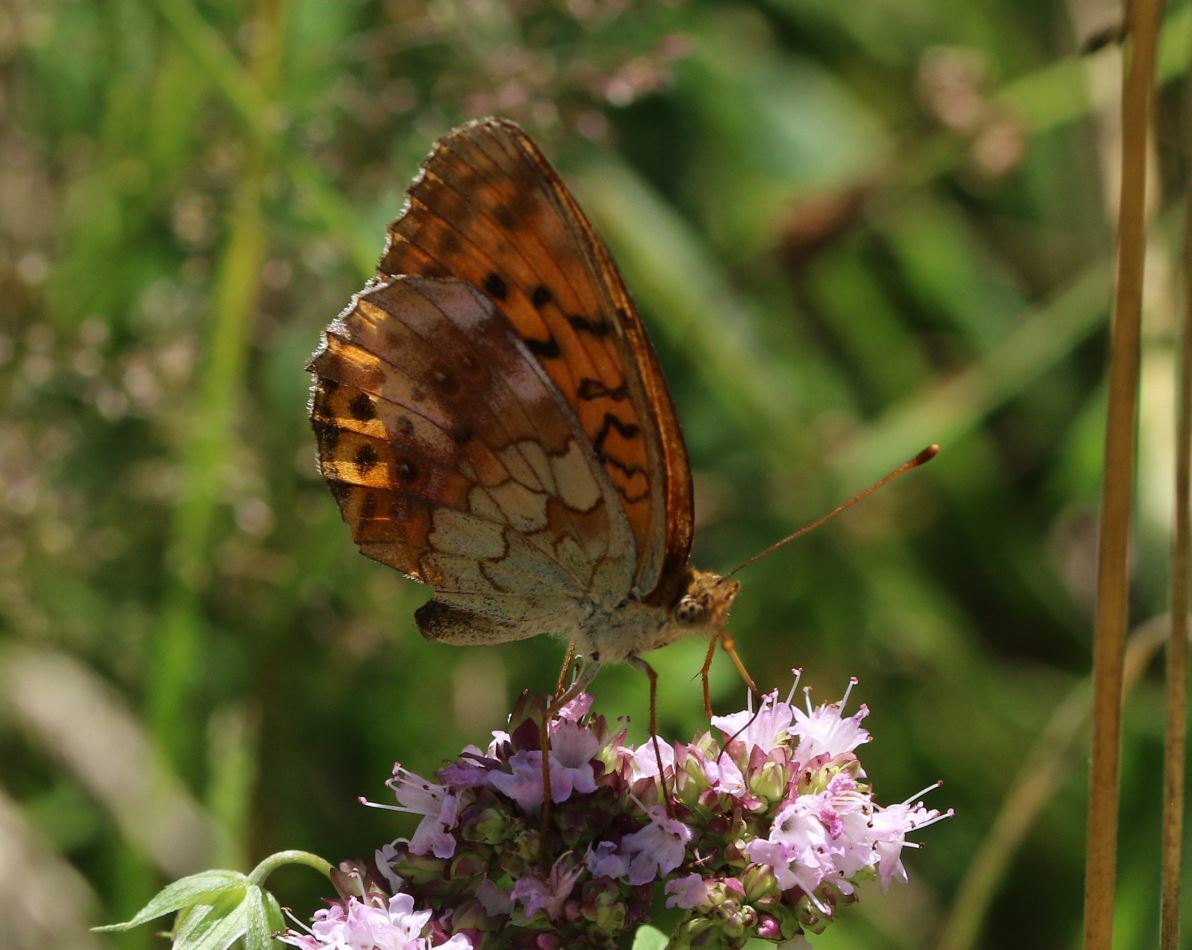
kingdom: Animalia
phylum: Arthropoda
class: Insecta
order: Lepidoptera
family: Nymphalidae
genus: Brenthis
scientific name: Brenthis daphne
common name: Marbled fritillary
